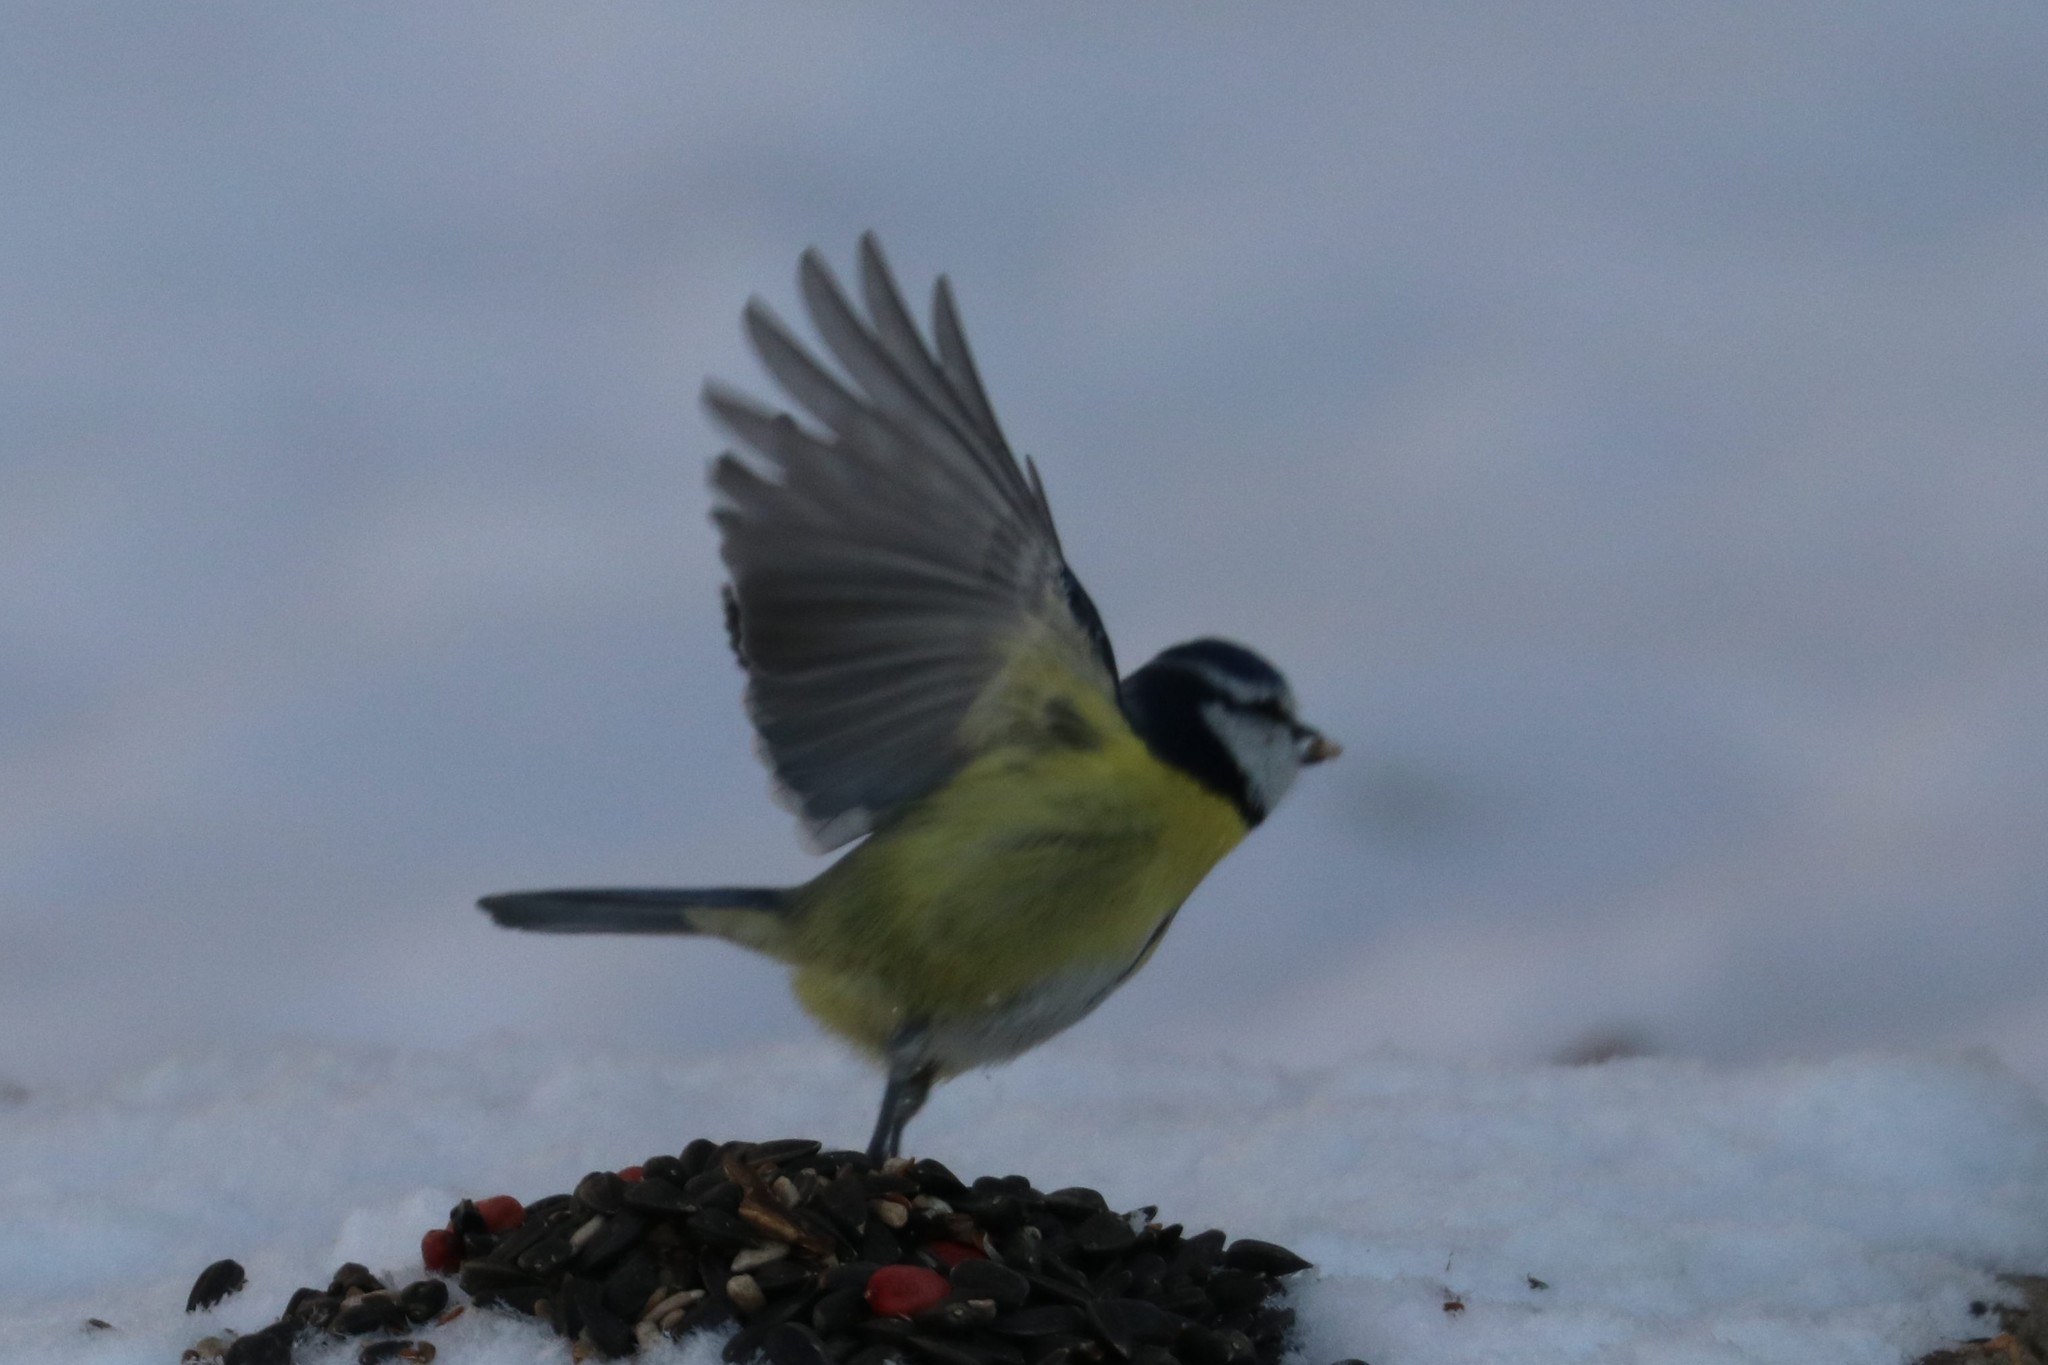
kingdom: Animalia
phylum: Chordata
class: Aves
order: Passeriformes
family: Paridae
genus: Cyanistes
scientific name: Cyanistes caeruleus
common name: Eurasian blue tit
